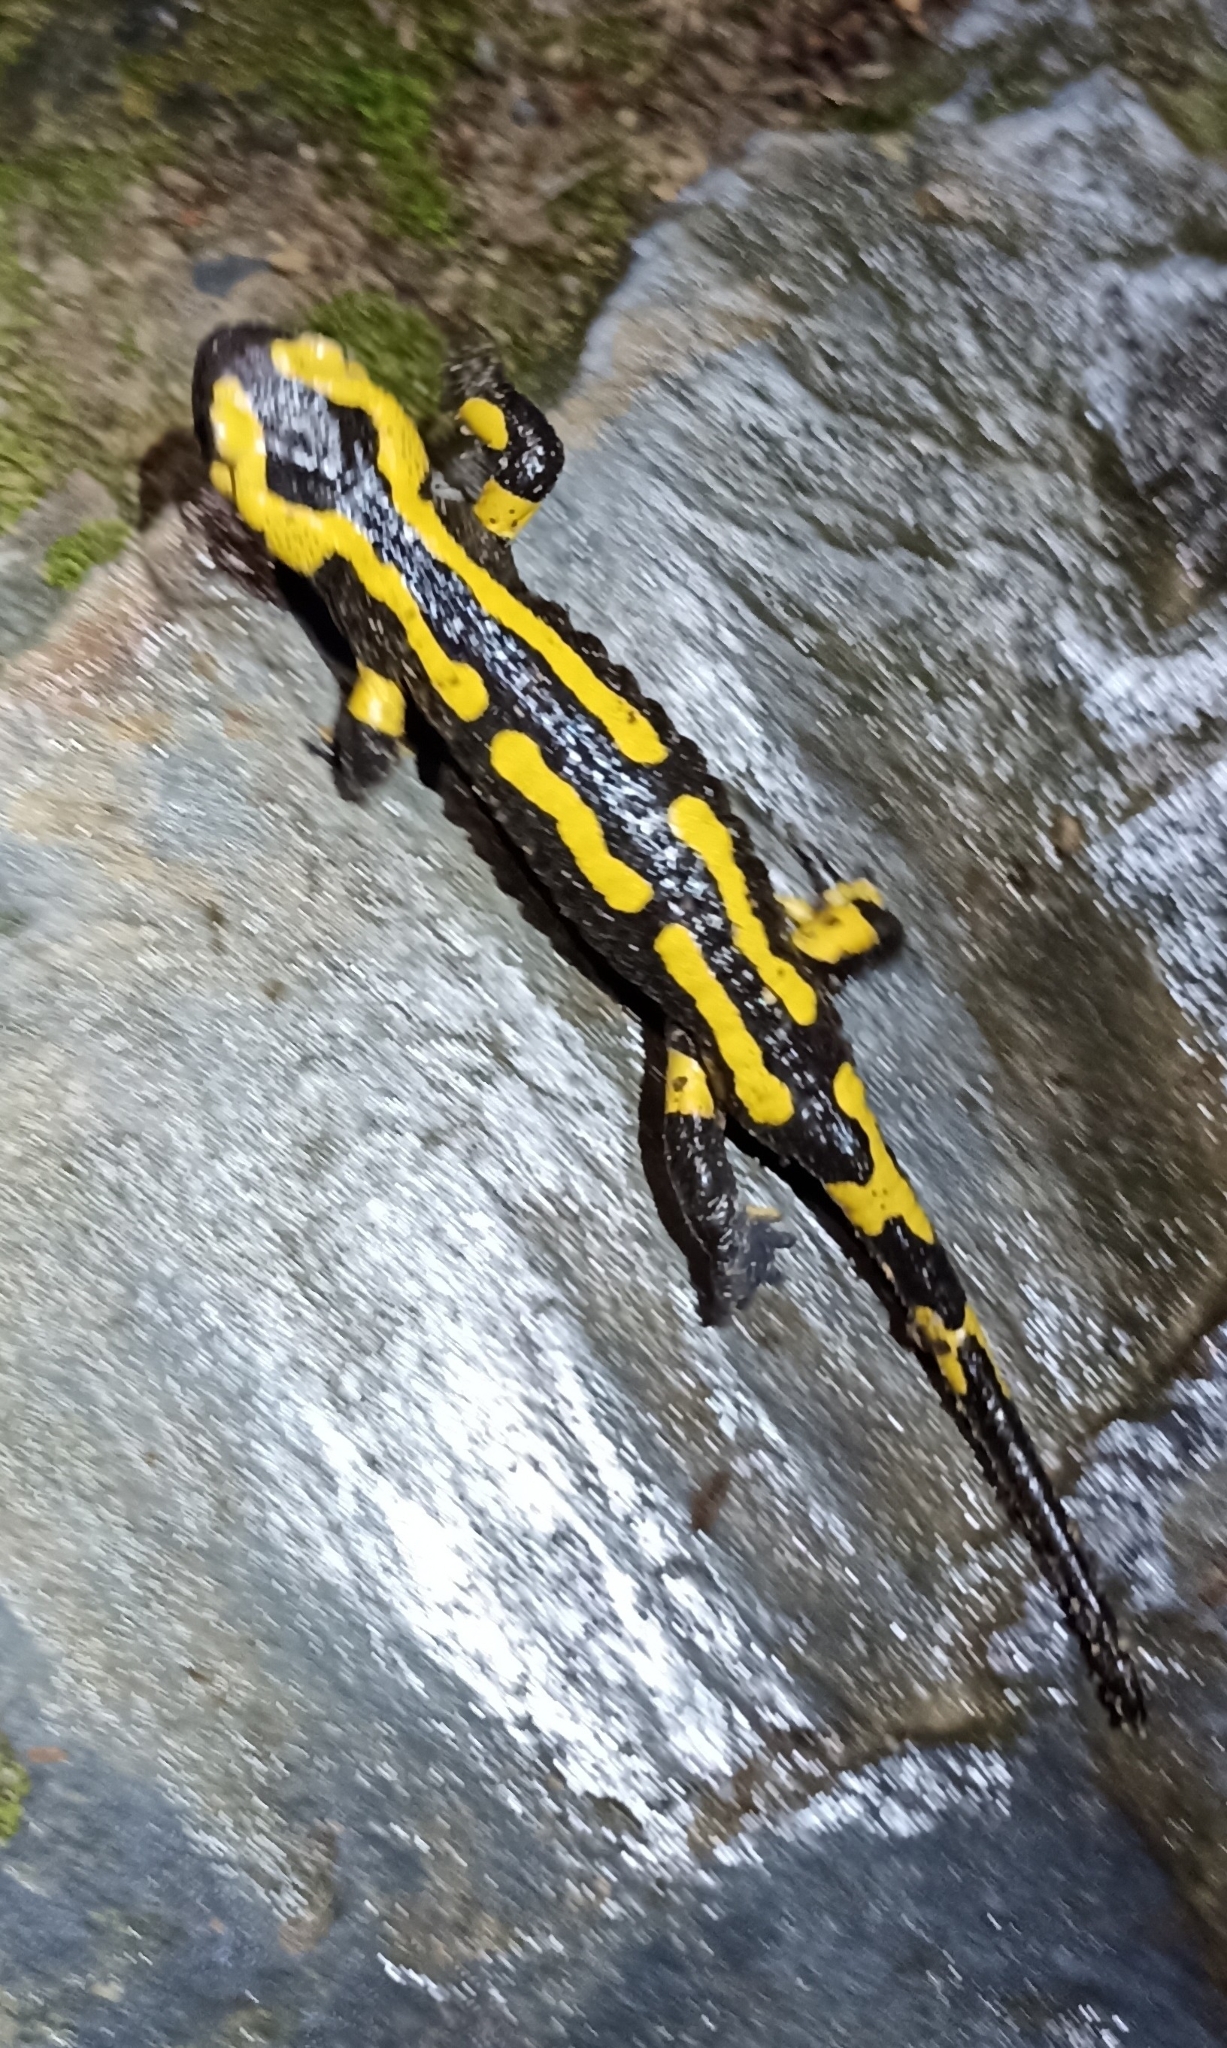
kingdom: Animalia
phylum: Chordata
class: Amphibia
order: Caudata
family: Salamandridae
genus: Salamandra
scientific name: Salamandra salamandra
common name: Fire salamander
